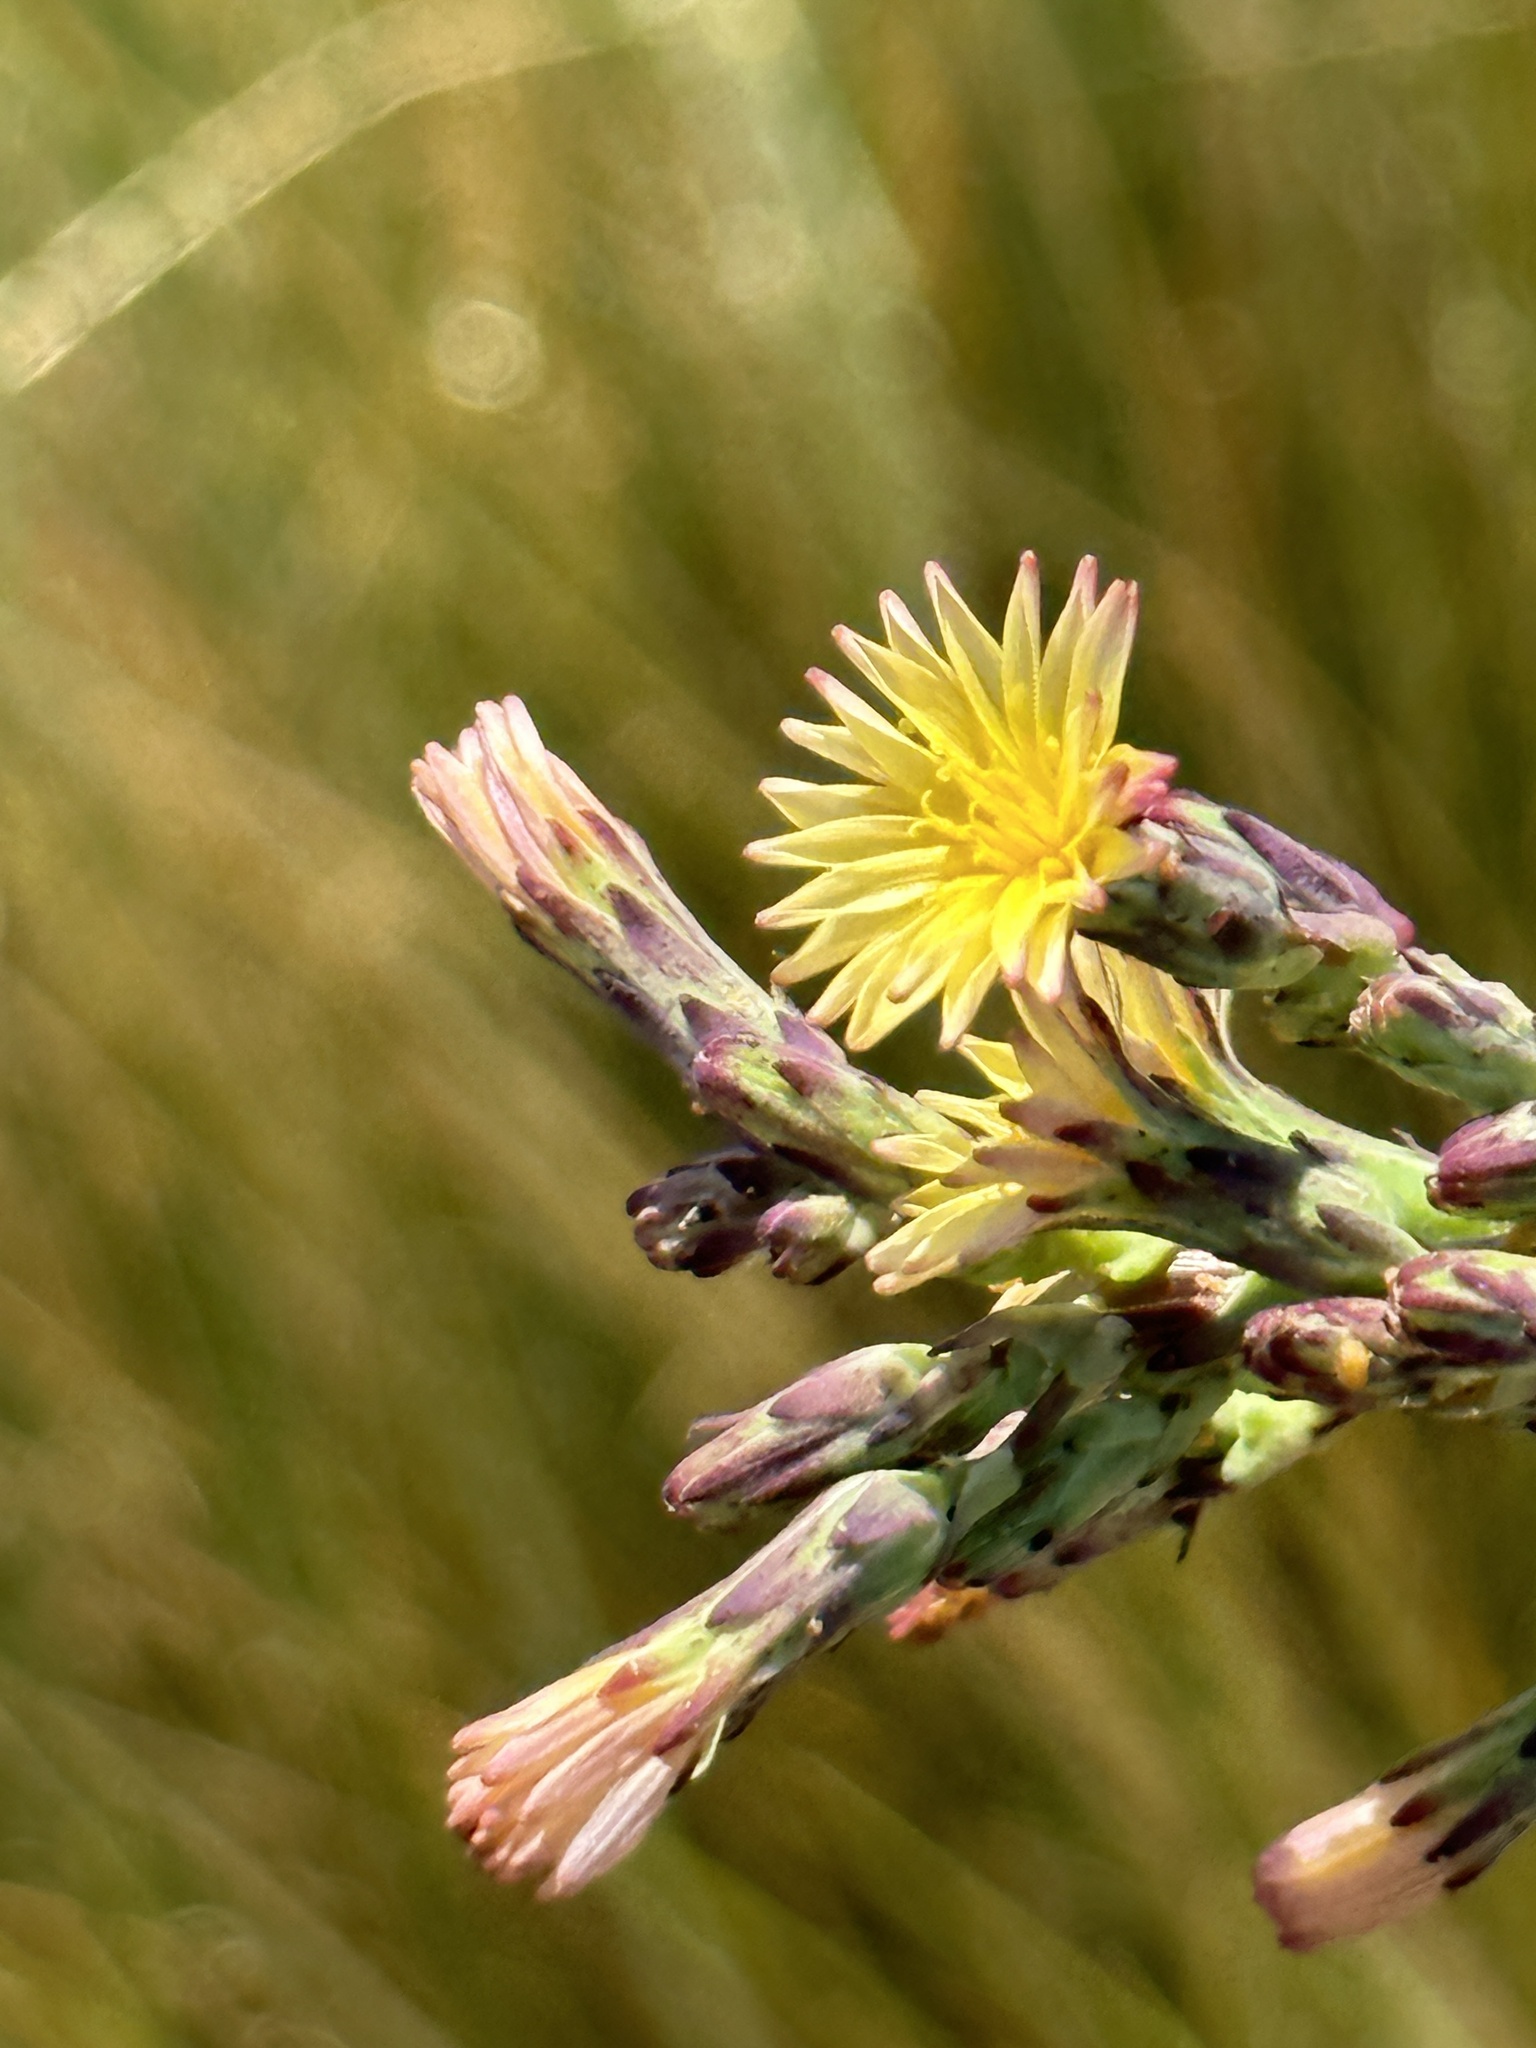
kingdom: Plantae
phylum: Tracheophyta
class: Magnoliopsida
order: Asterales
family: Asteraceae
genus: Lactuca
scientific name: Lactuca virosa
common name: Great lettuce
